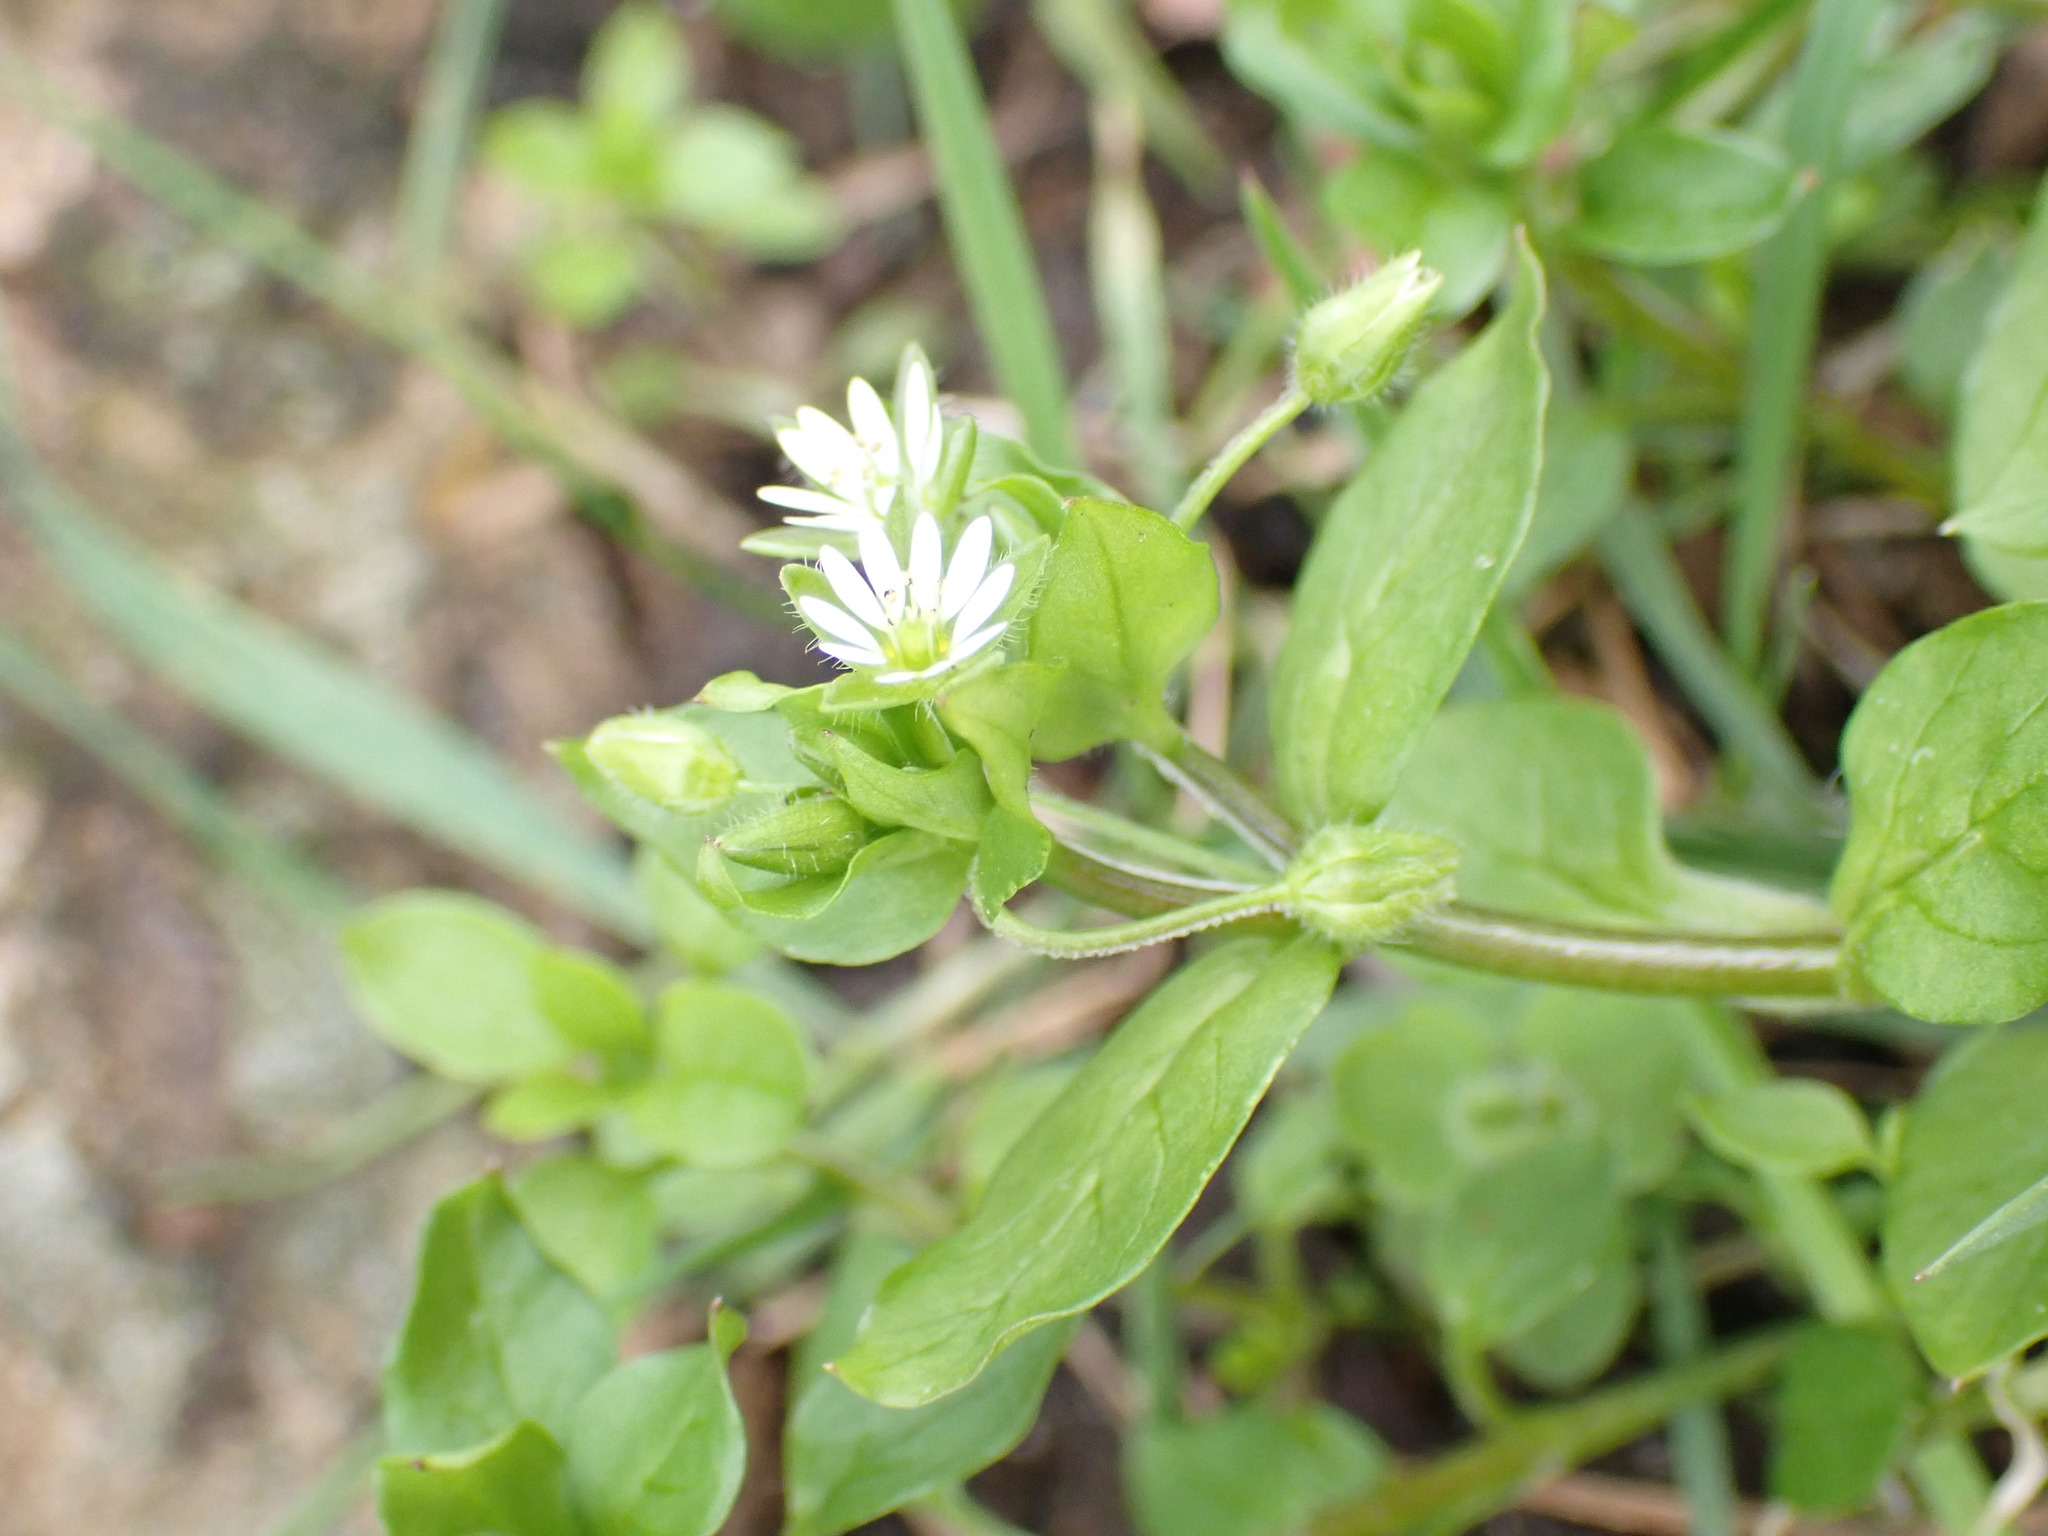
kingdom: Plantae
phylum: Tracheophyta
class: Magnoliopsida
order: Caryophyllales
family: Caryophyllaceae
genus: Stellaria
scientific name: Stellaria media
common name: Common chickweed
